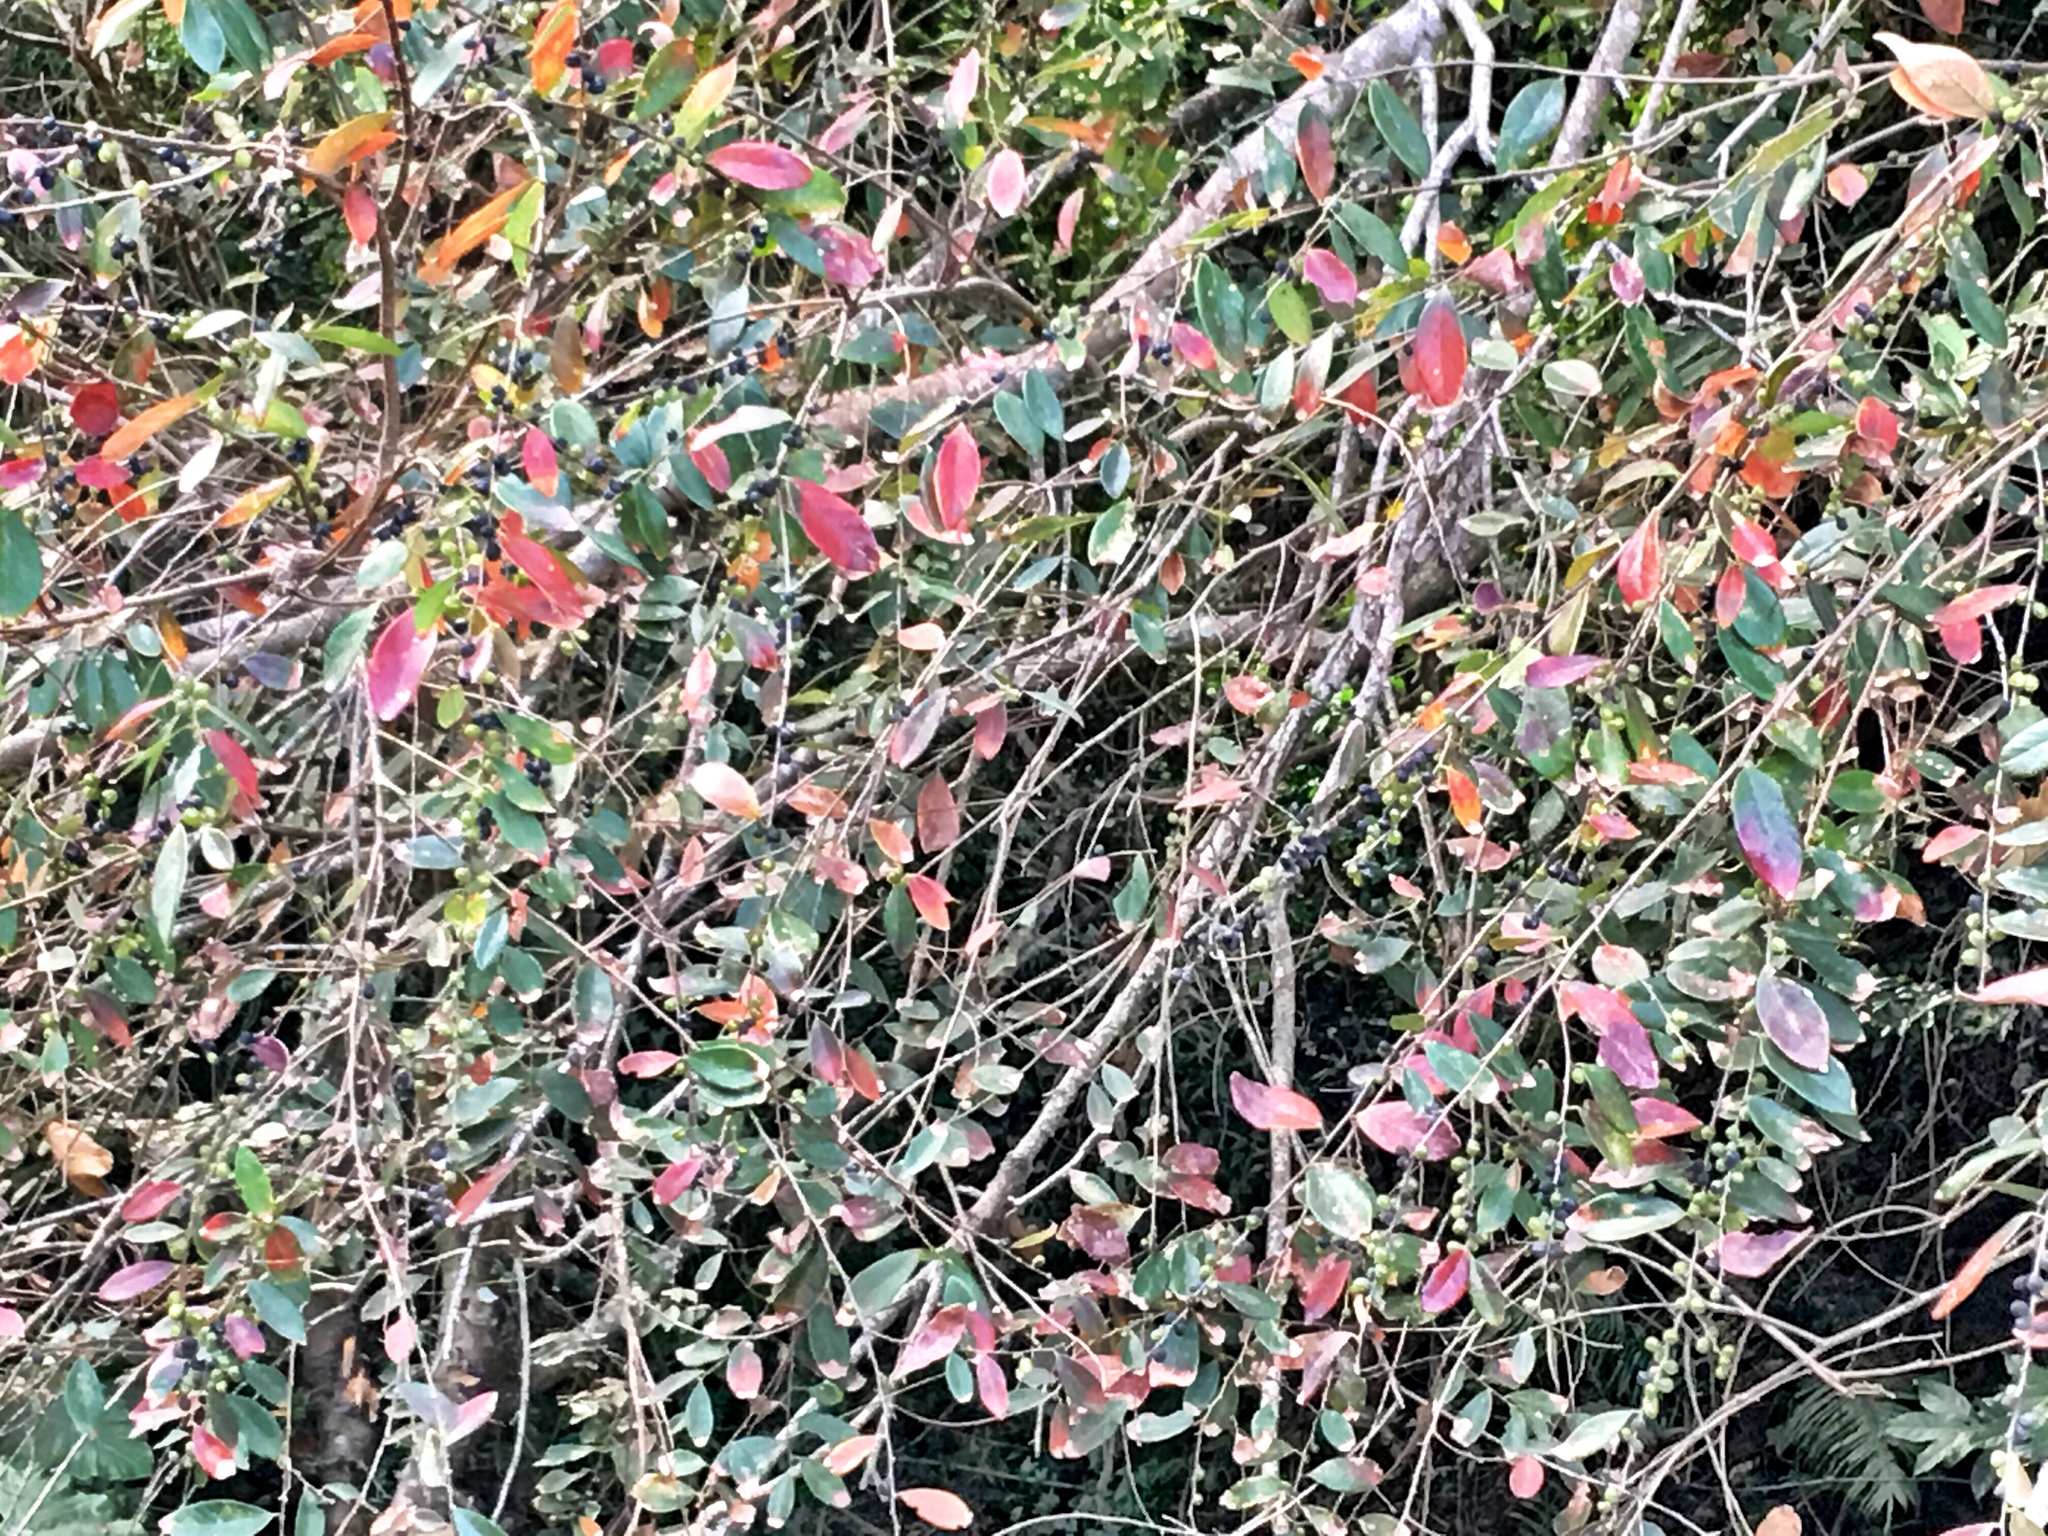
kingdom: Plantae
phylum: Tracheophyta
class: Magnoliopsida
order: Malpighiales
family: Phyllanthaceae
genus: Bridelia
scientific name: Bridelia tomentosa
